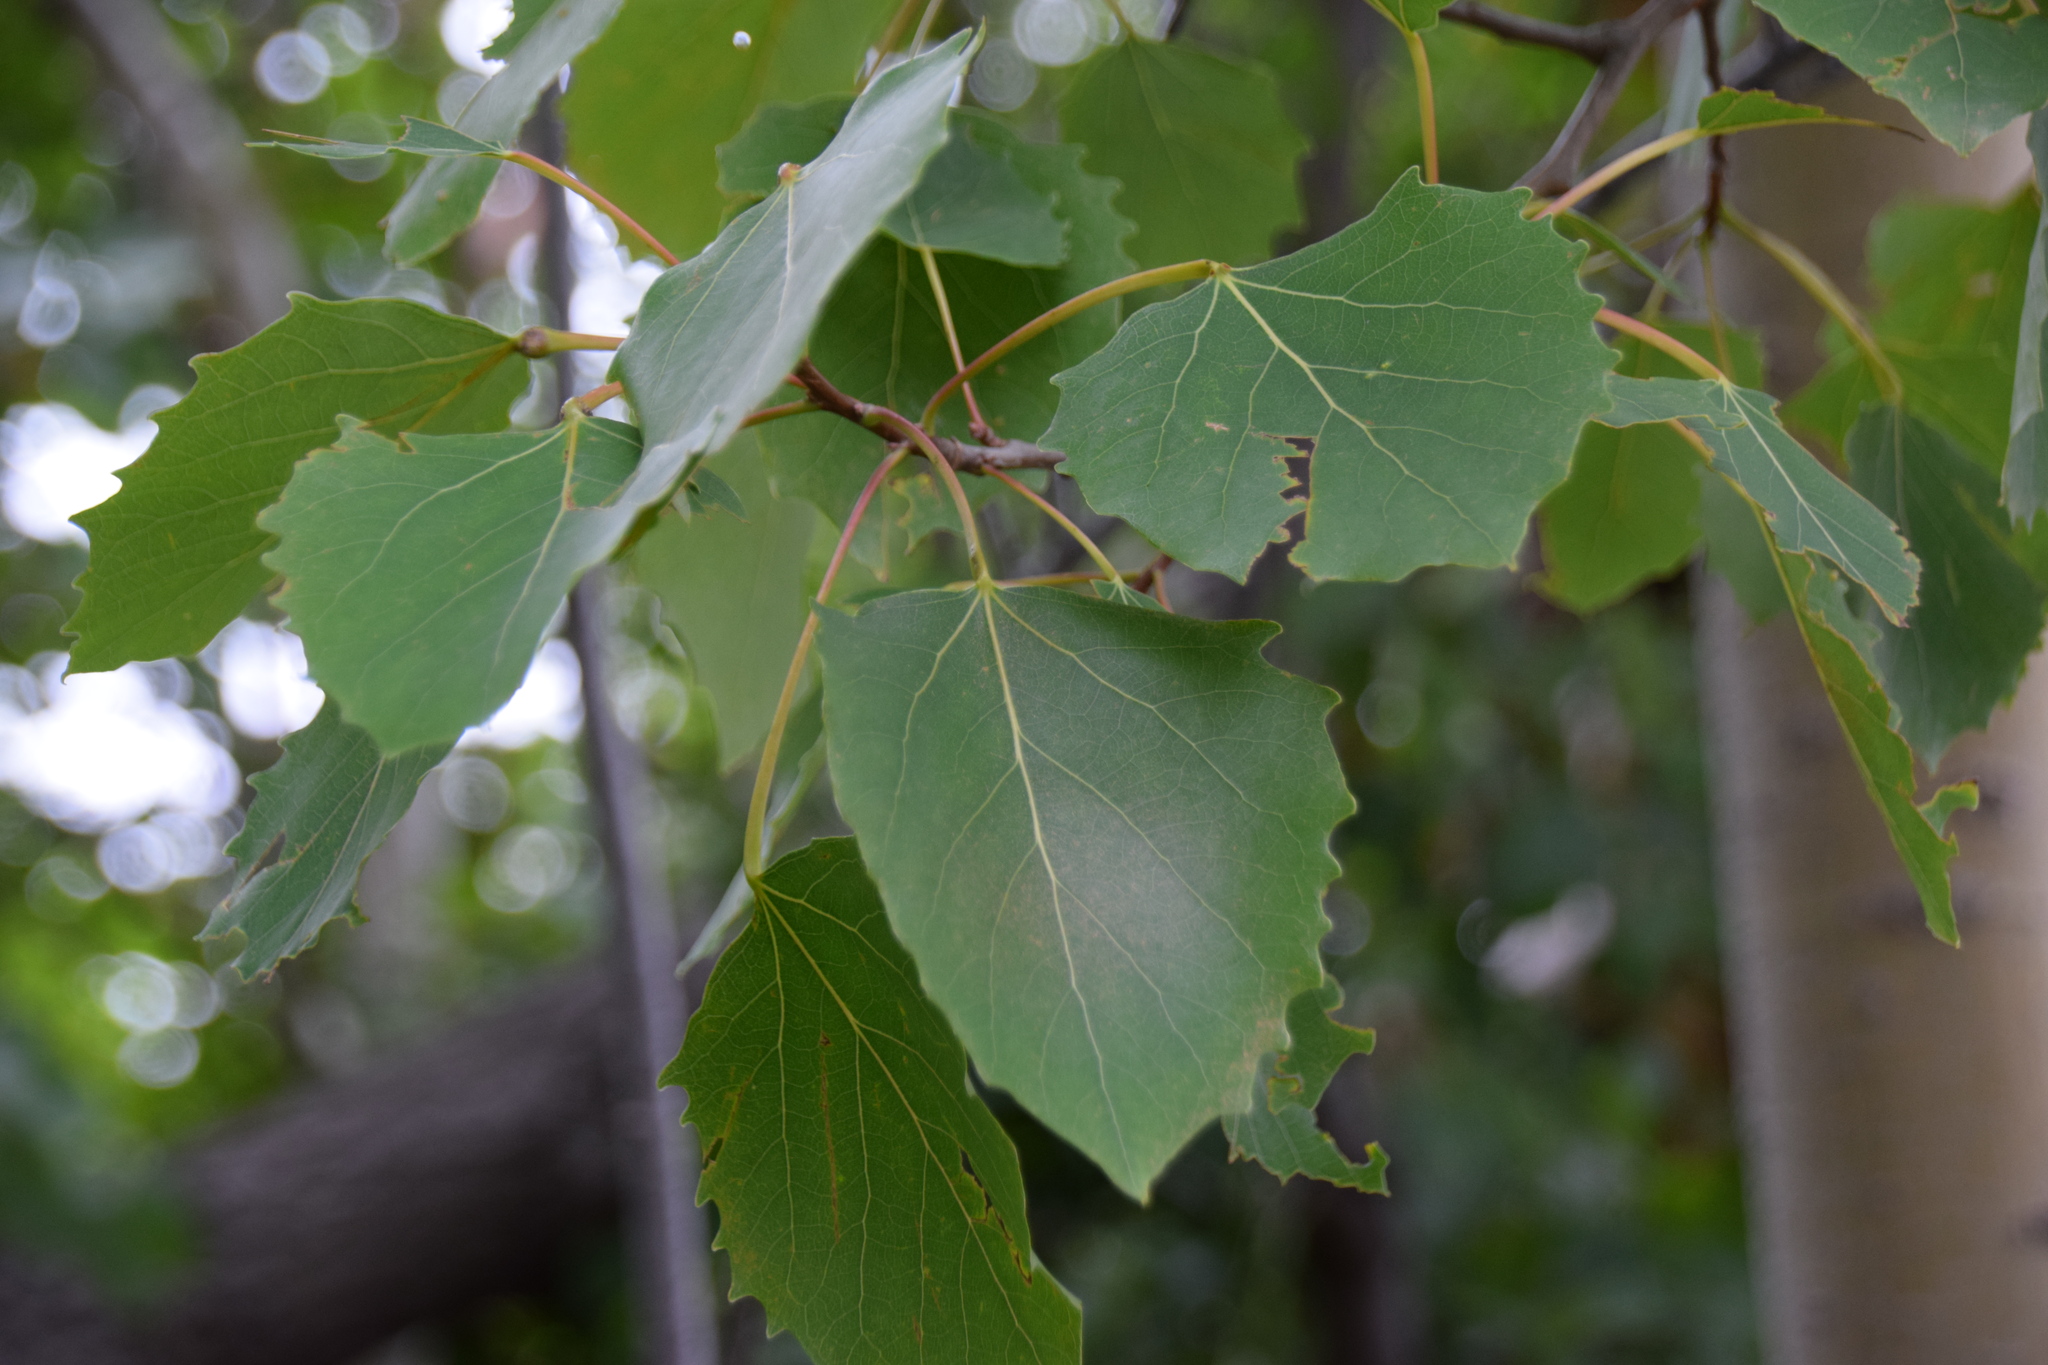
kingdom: Plantae
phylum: Tracheophyta
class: Magnoliopsida
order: Malpighiales
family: Salicaceae
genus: Populus
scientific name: Populus grandidentata
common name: Bigtooth aspen
